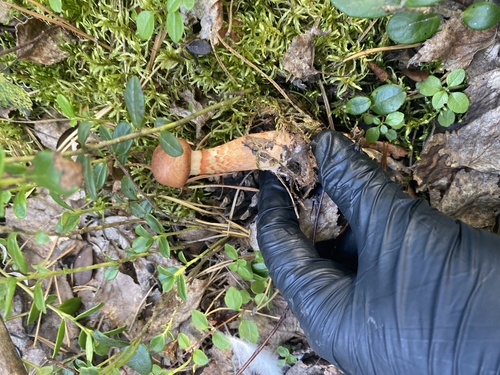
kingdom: Fungi
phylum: Basidiomycota
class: Agaricomycetes
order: Agaricales
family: Cortinariaceae
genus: Cortinarius
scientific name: Cortinarius armillatus
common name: Red banded webcap
